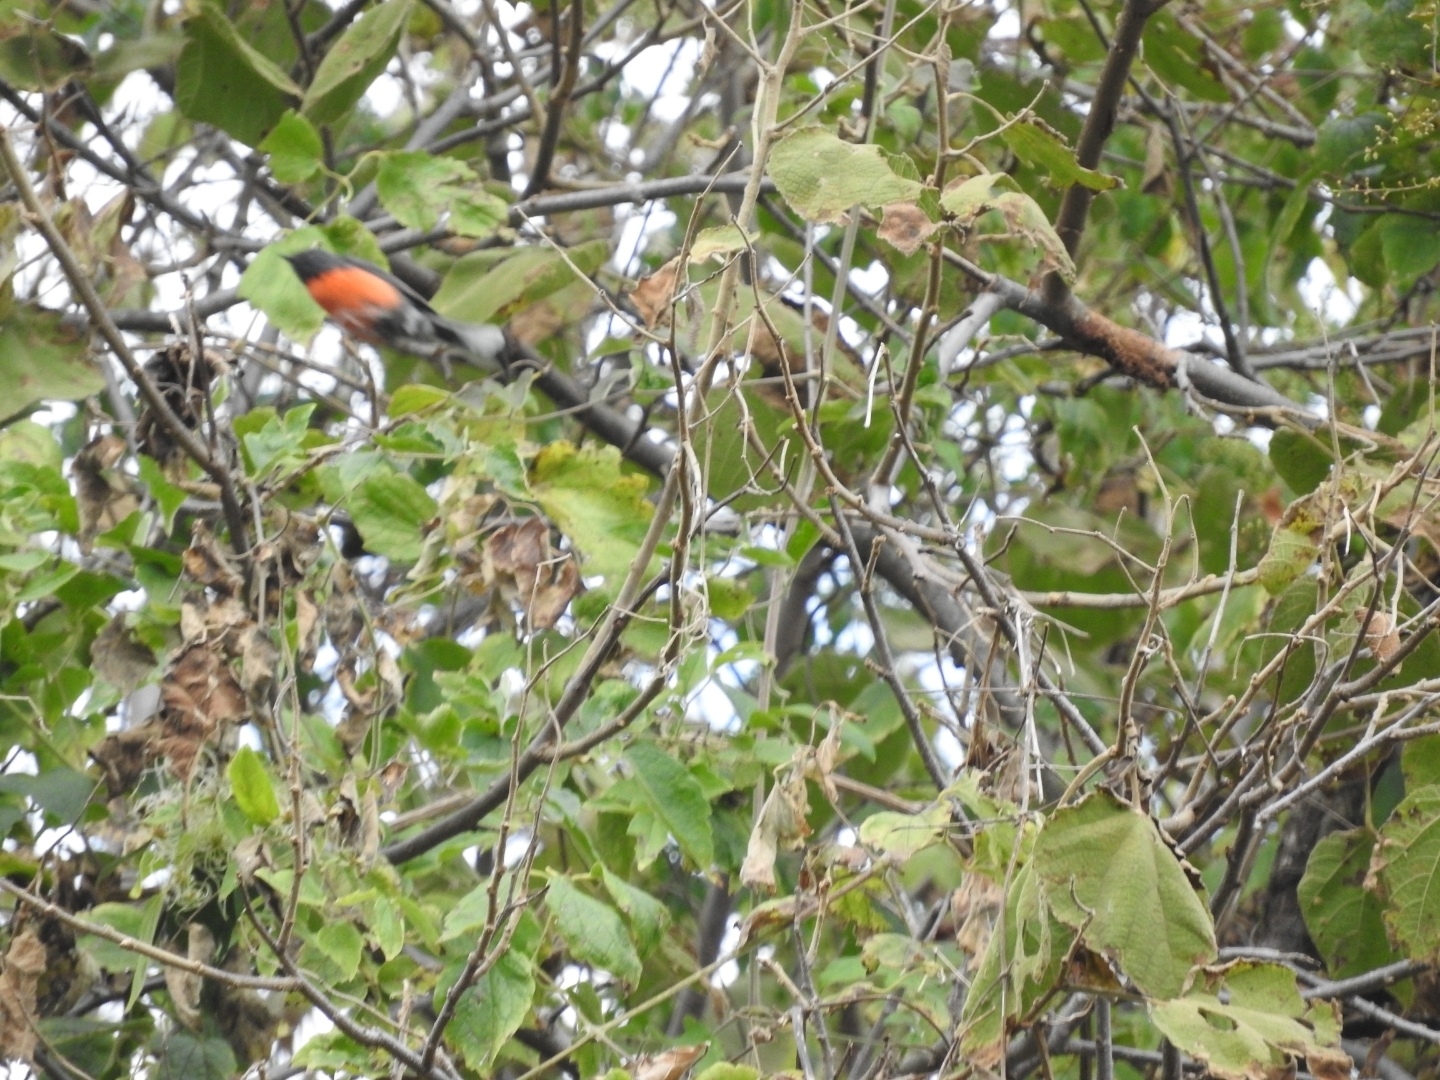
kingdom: Animalia
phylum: Chordata
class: Aves
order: Passeriformes
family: Parulidae
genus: Myioborus
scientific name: Myioborus miniatus
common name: Slate-throated redstart
